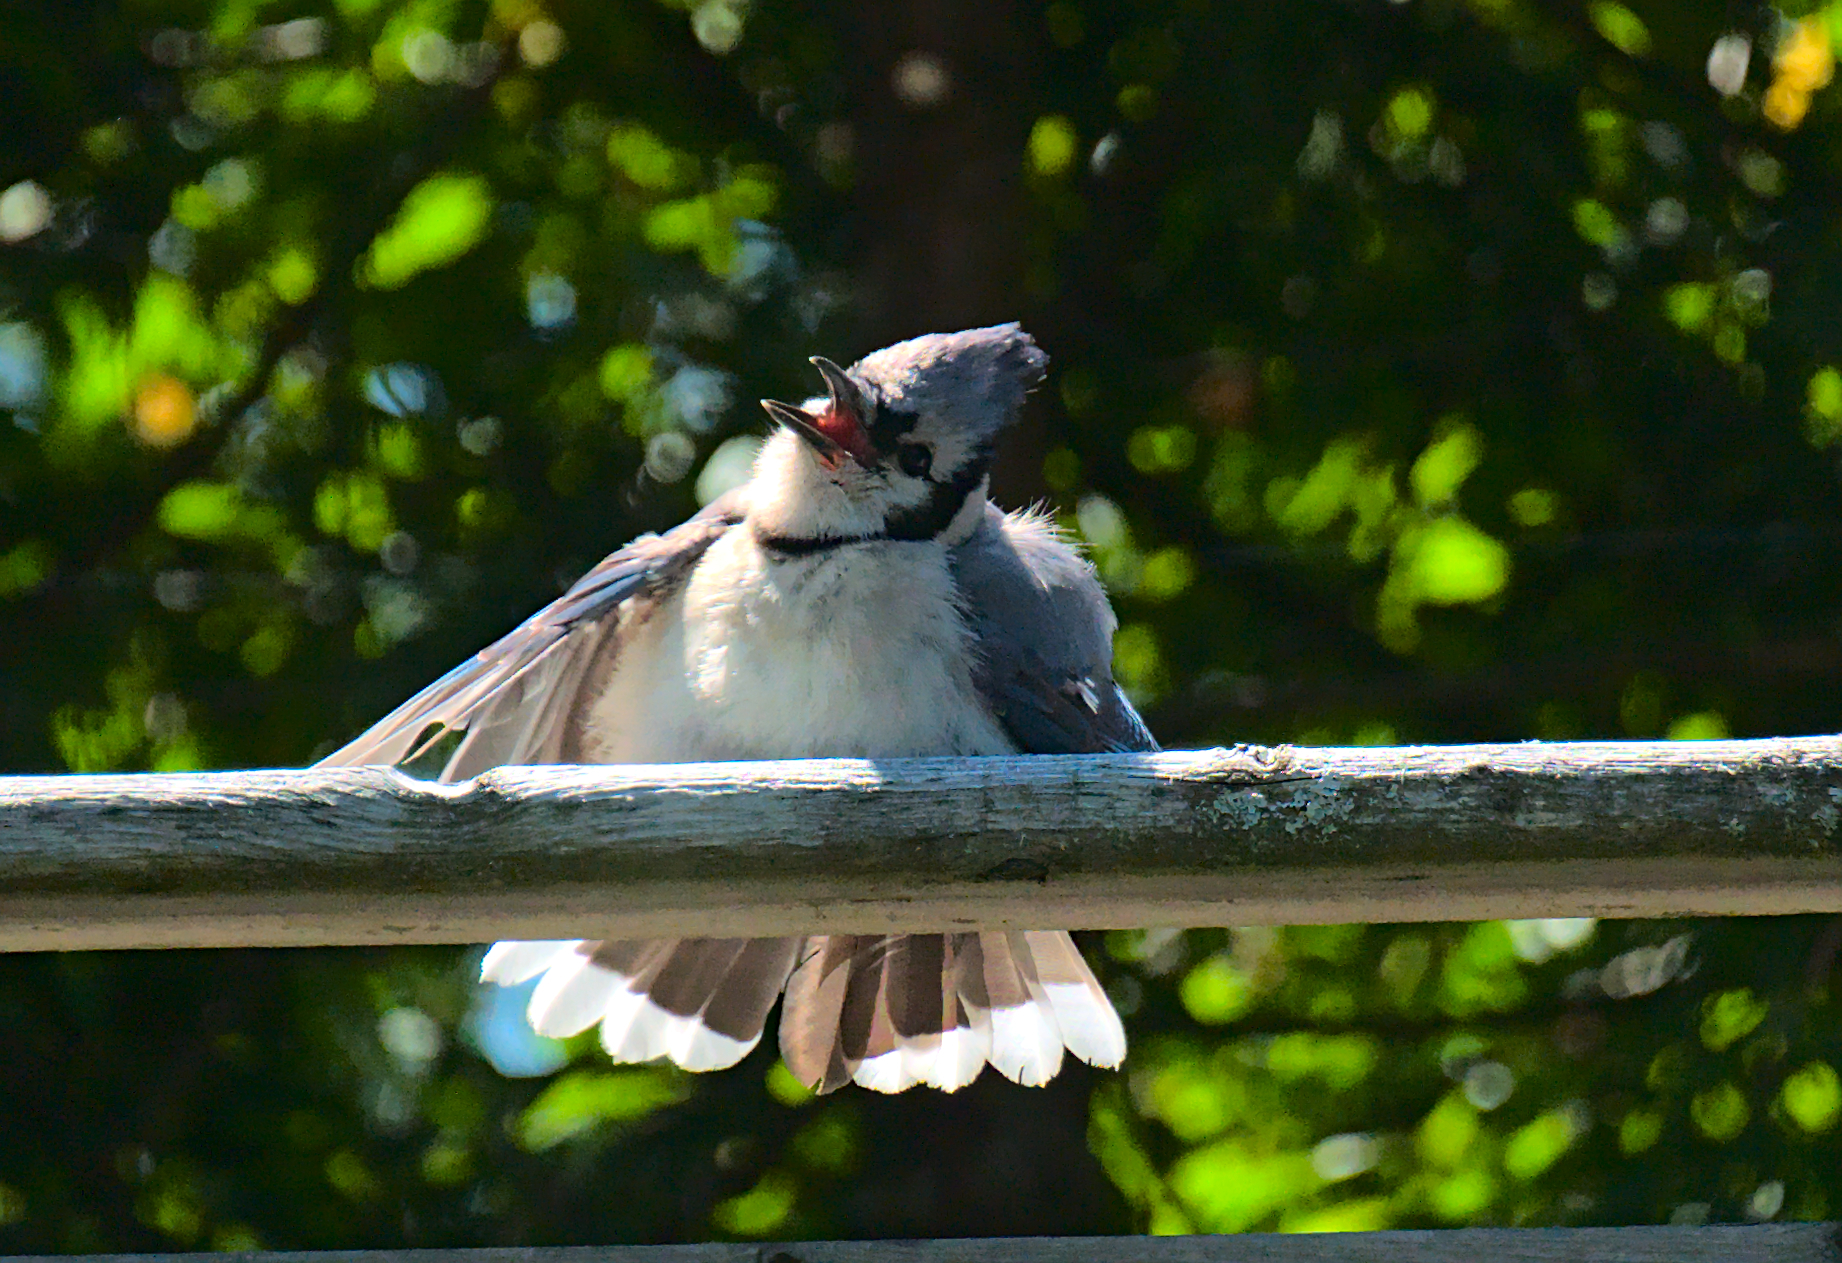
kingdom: Animalia
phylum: Chordata
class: Aves
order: Passeriformes
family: Corvidae
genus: Cyanocitta
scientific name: Cyanocitta cristata
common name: Blue jay
